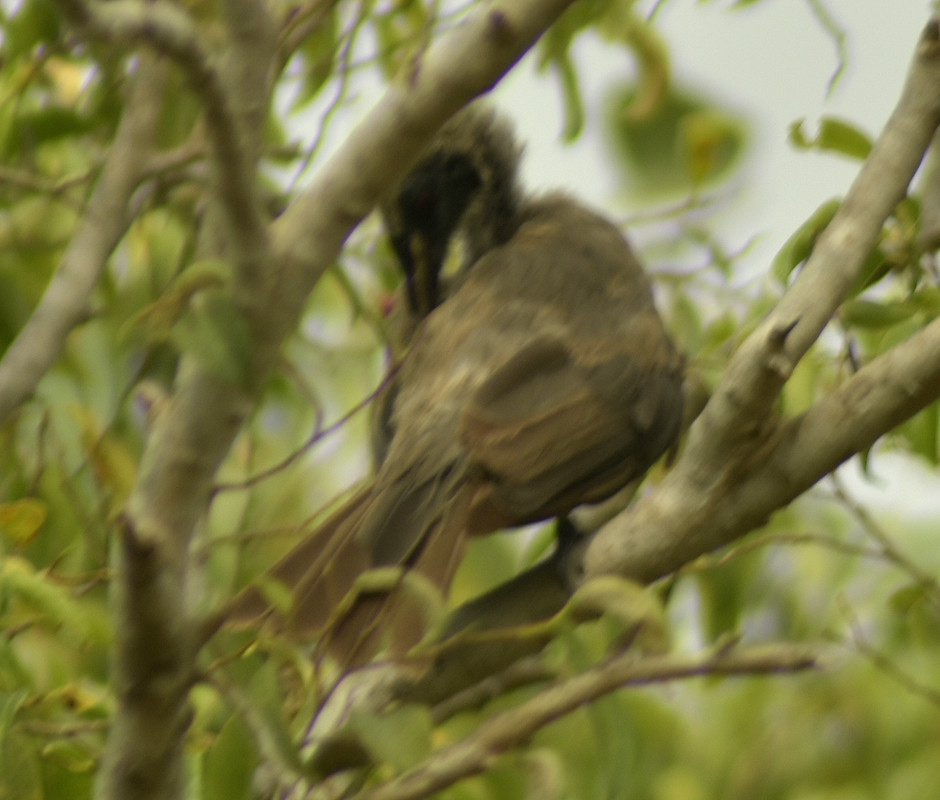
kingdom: Animalia
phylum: Chordata
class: Aves
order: Passeriformes
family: Meliphagidae
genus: Philemon
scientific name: Philemon buceroides
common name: Helmeted friarbird
